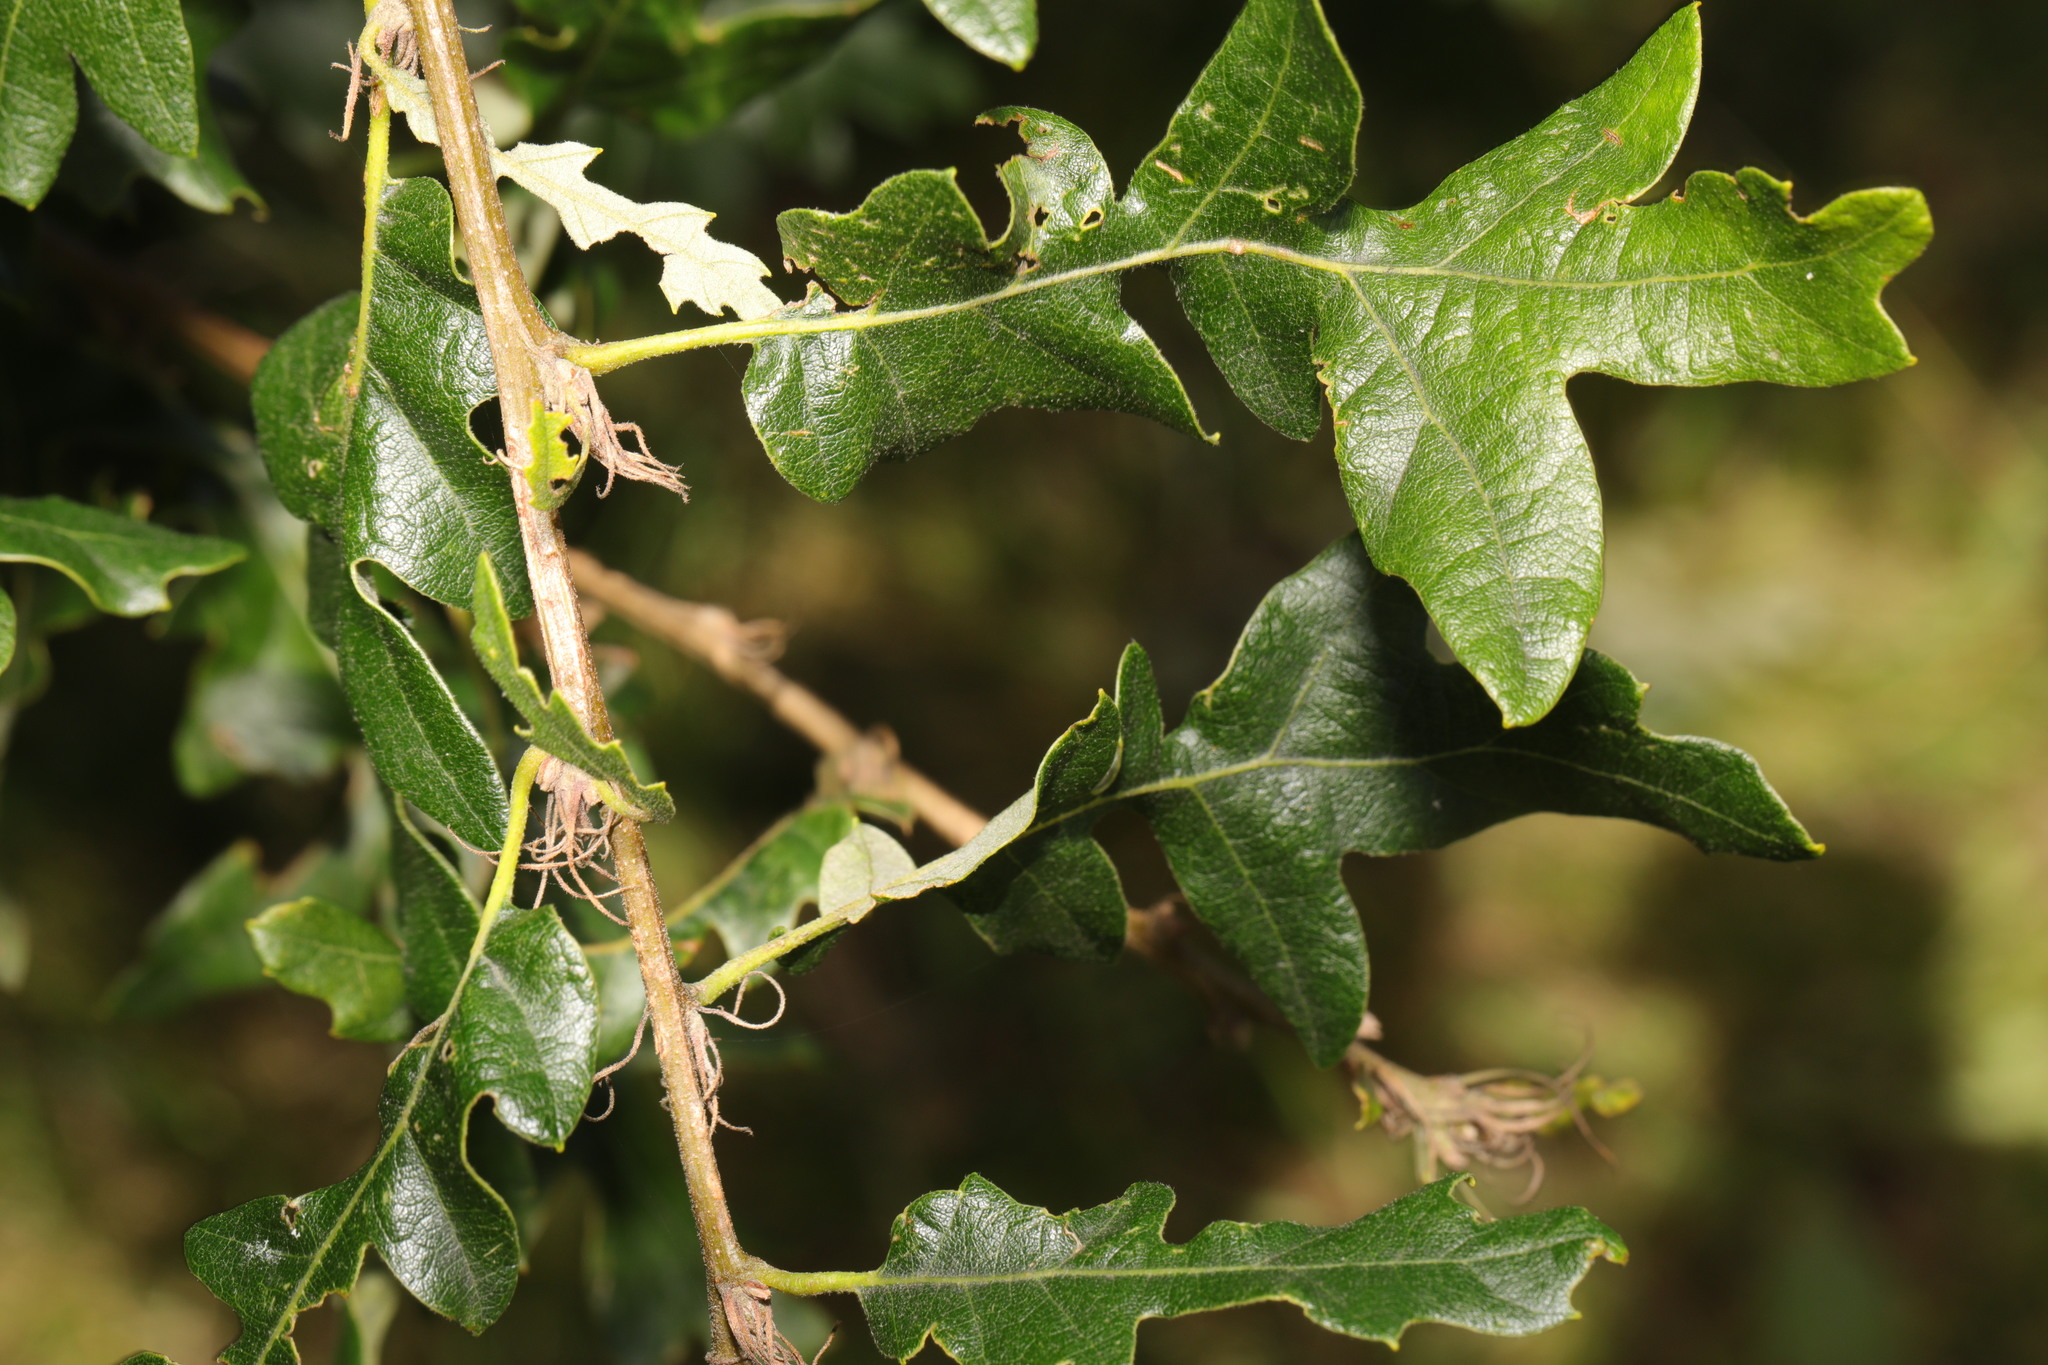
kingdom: Plantae
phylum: Tracheophyta
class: Magnoliopsida
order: Fagales
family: Fagaceae
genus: Quercus
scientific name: Quercus cerris
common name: Turkey oak
